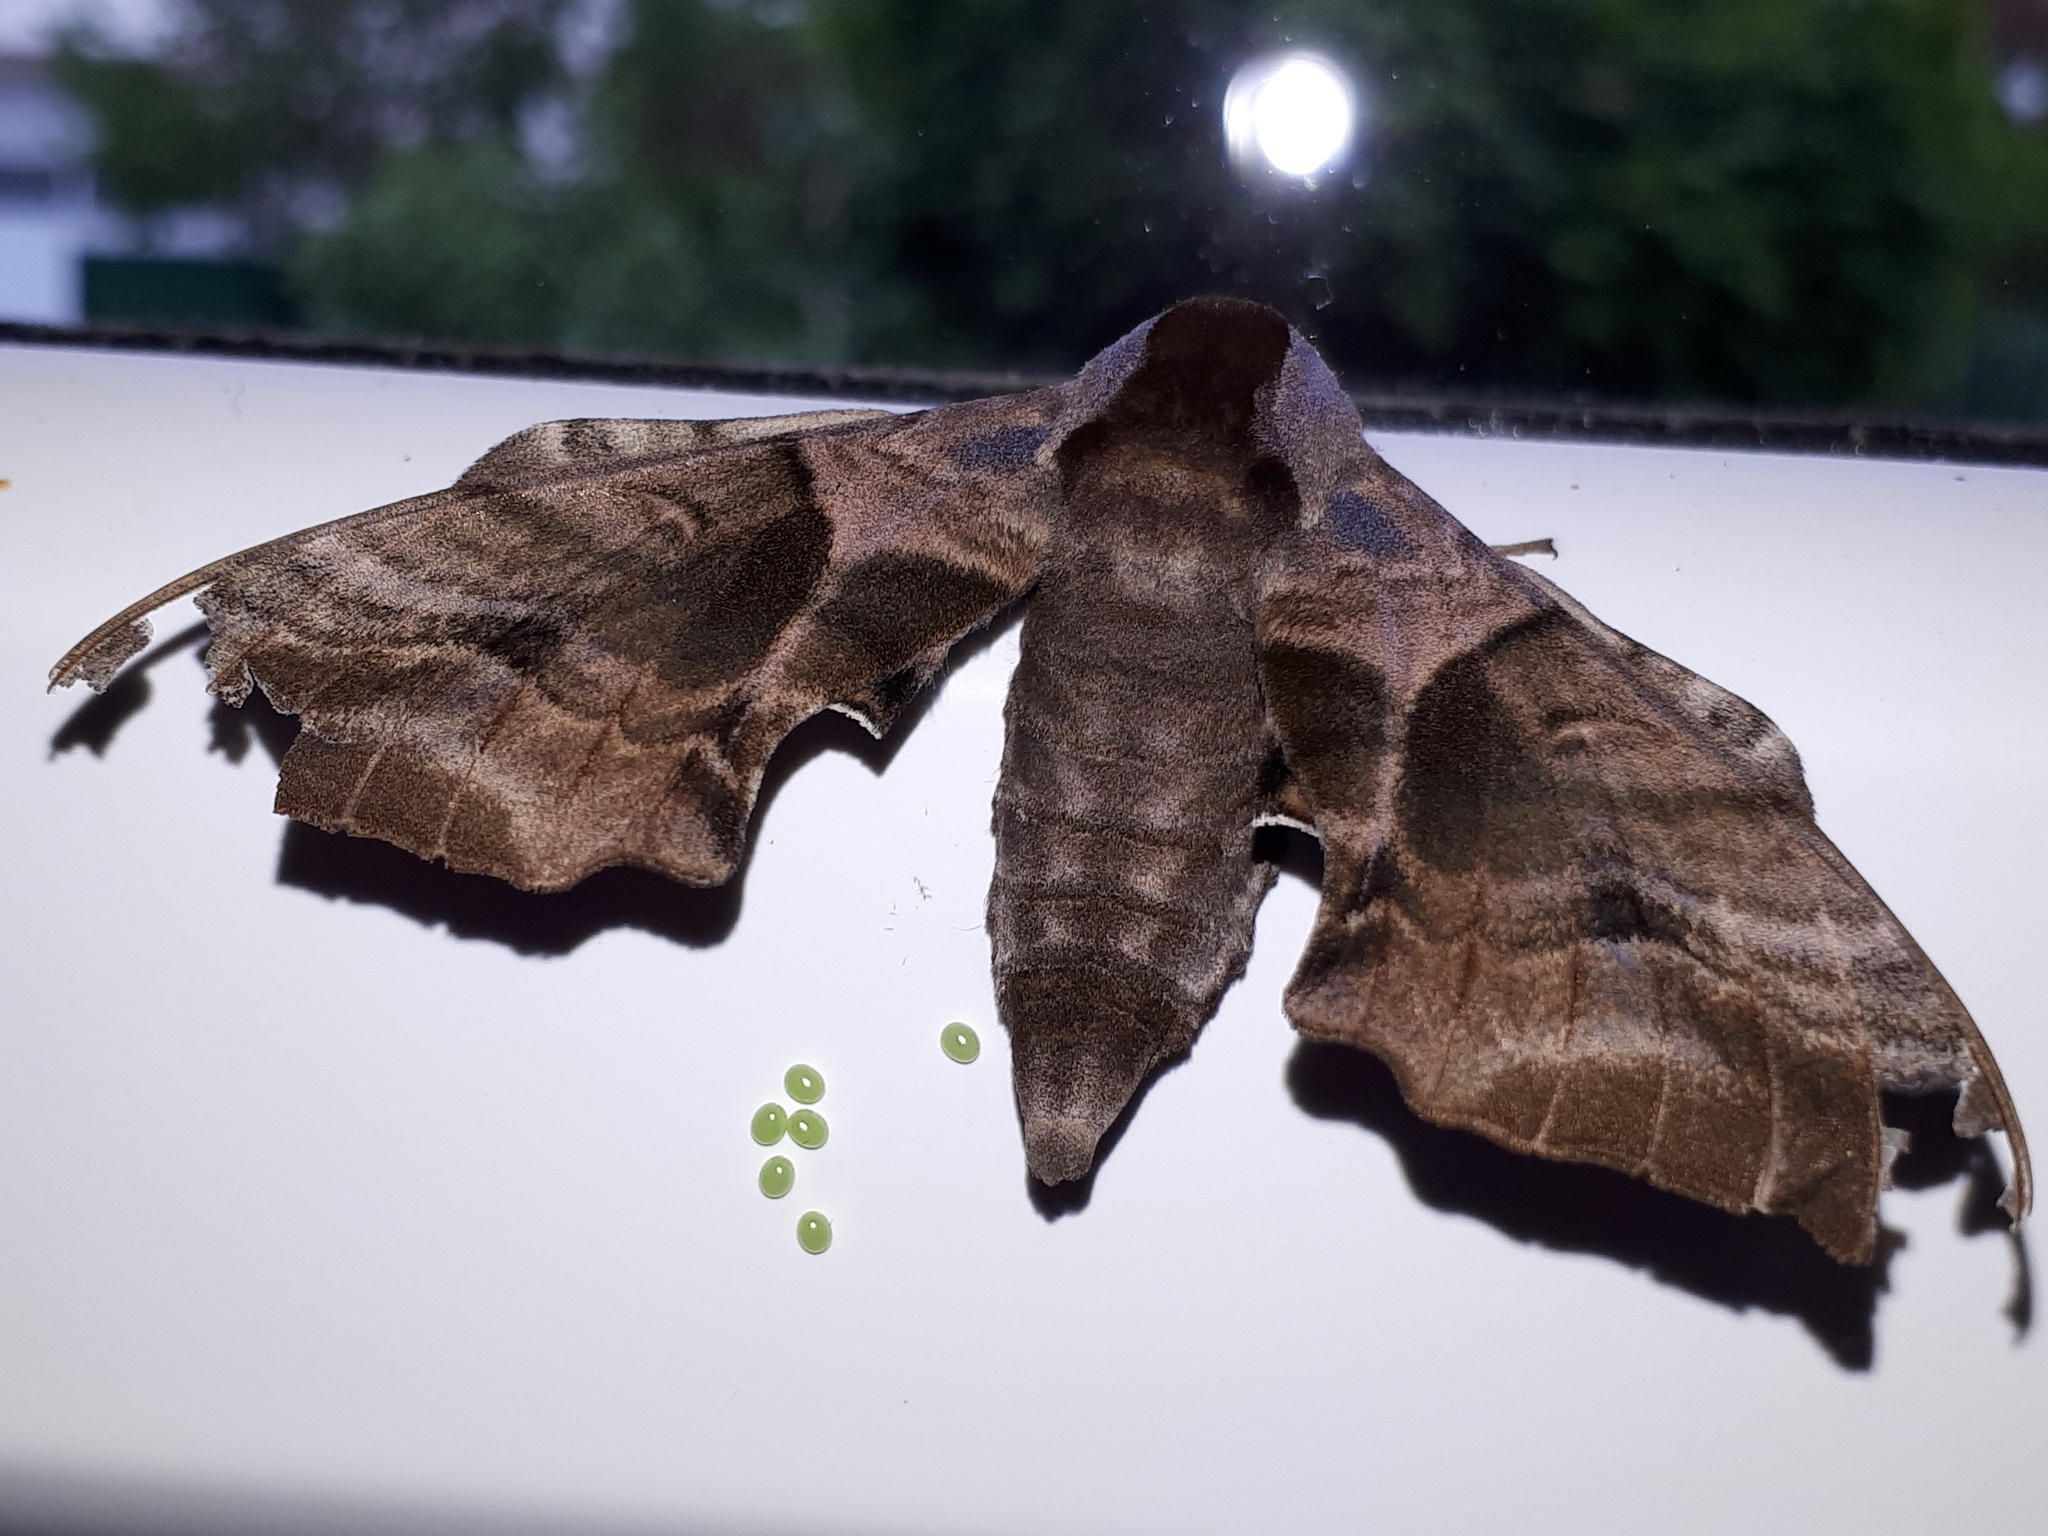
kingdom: Animalia
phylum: Arthropoda
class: Insecta
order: Lepidoptera
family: Sphingidae
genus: Smerinthus
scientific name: Smerinthus ocellata
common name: Eyed hawk-moth
